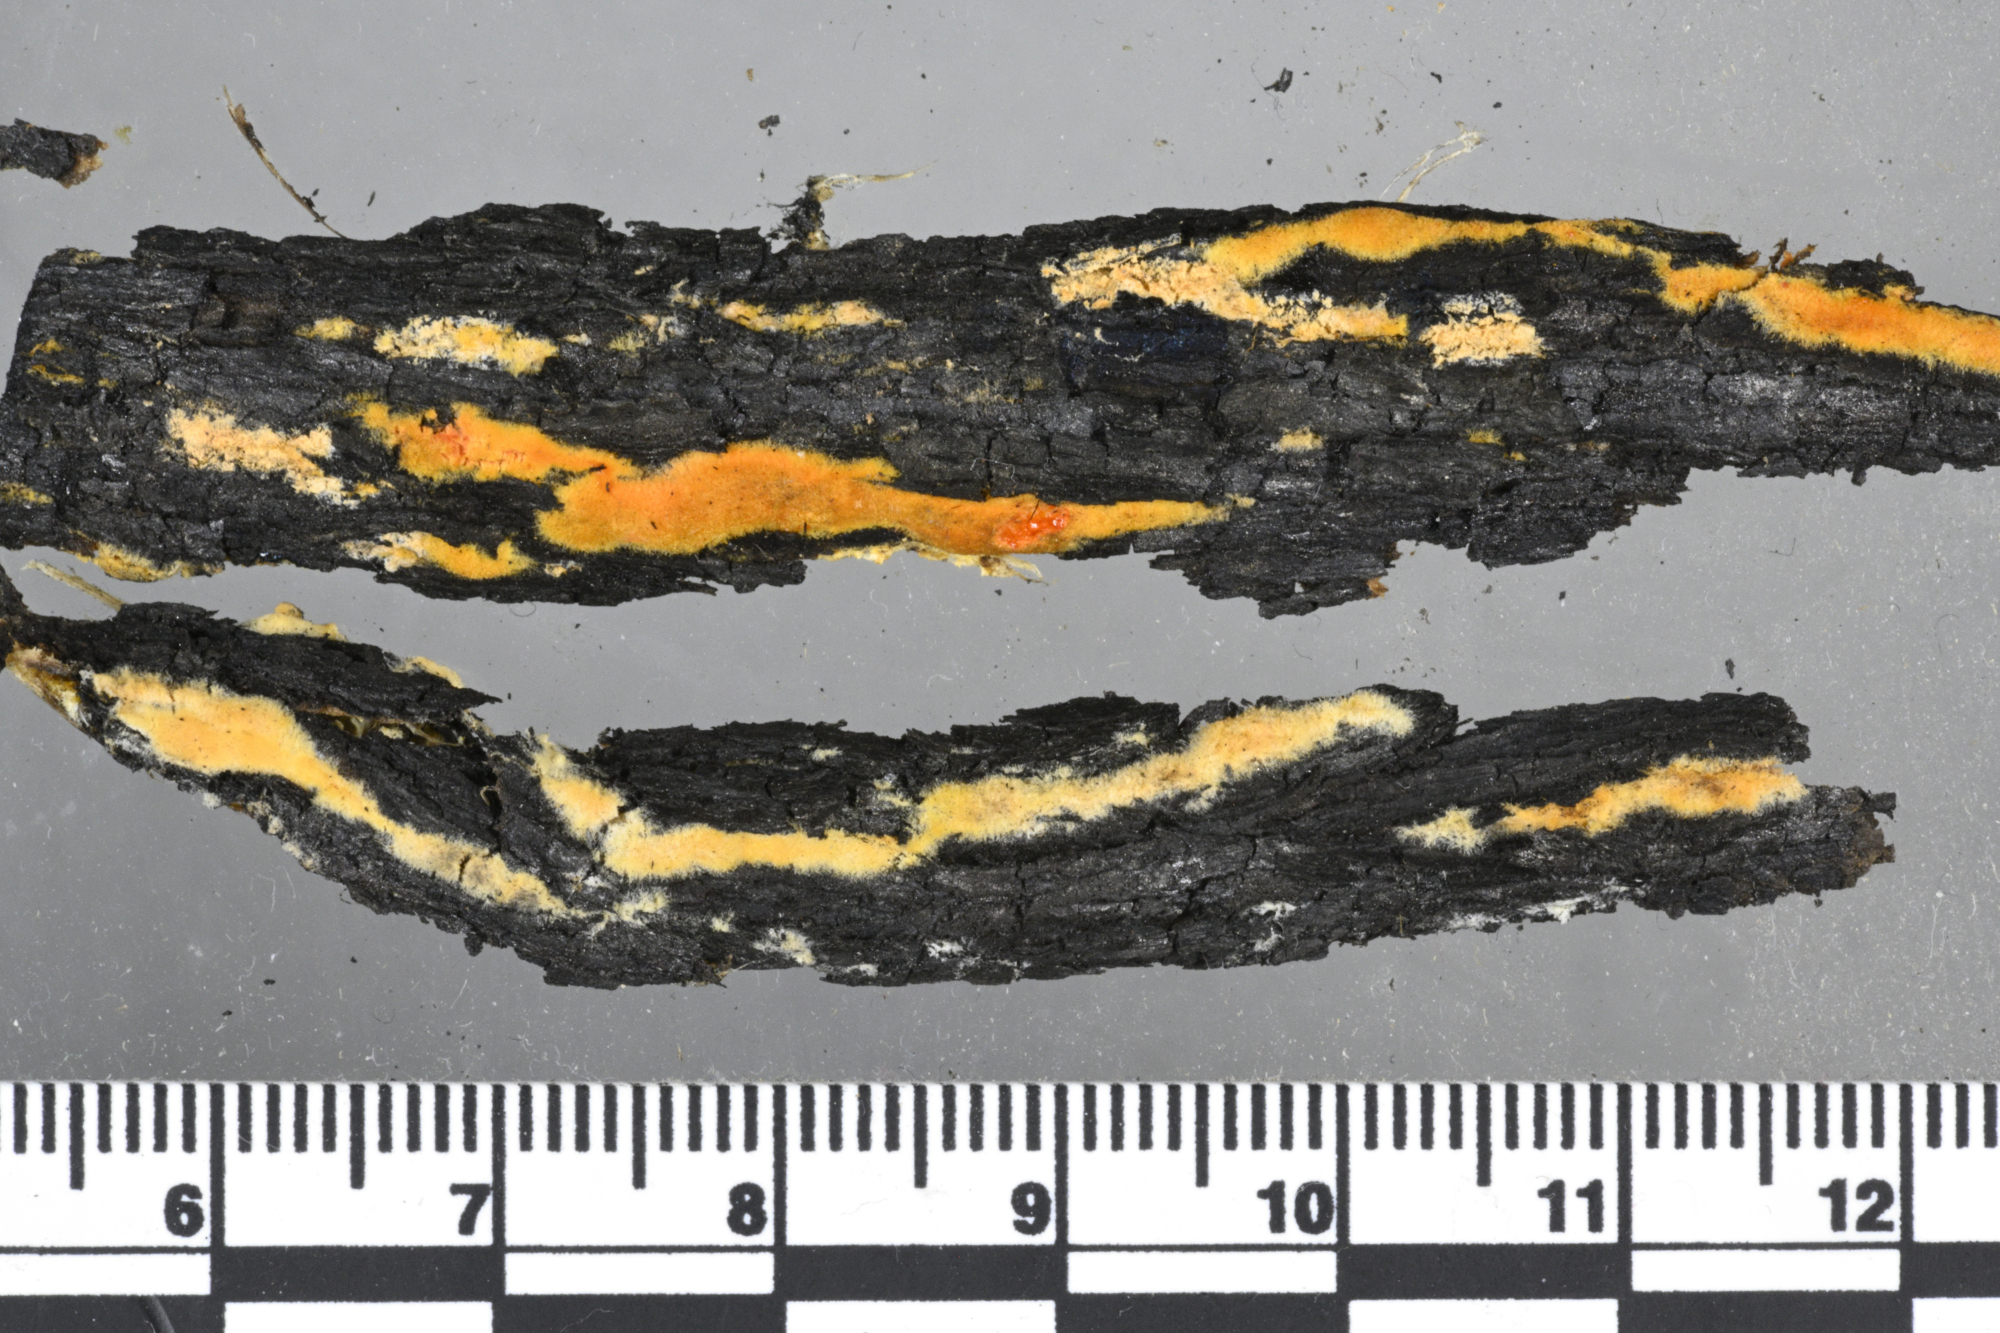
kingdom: Fungi
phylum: Ascomycota
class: Sordariomycetes
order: Sordariales
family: Sordariaceae
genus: Neurospora
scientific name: Neurospora sitophila
